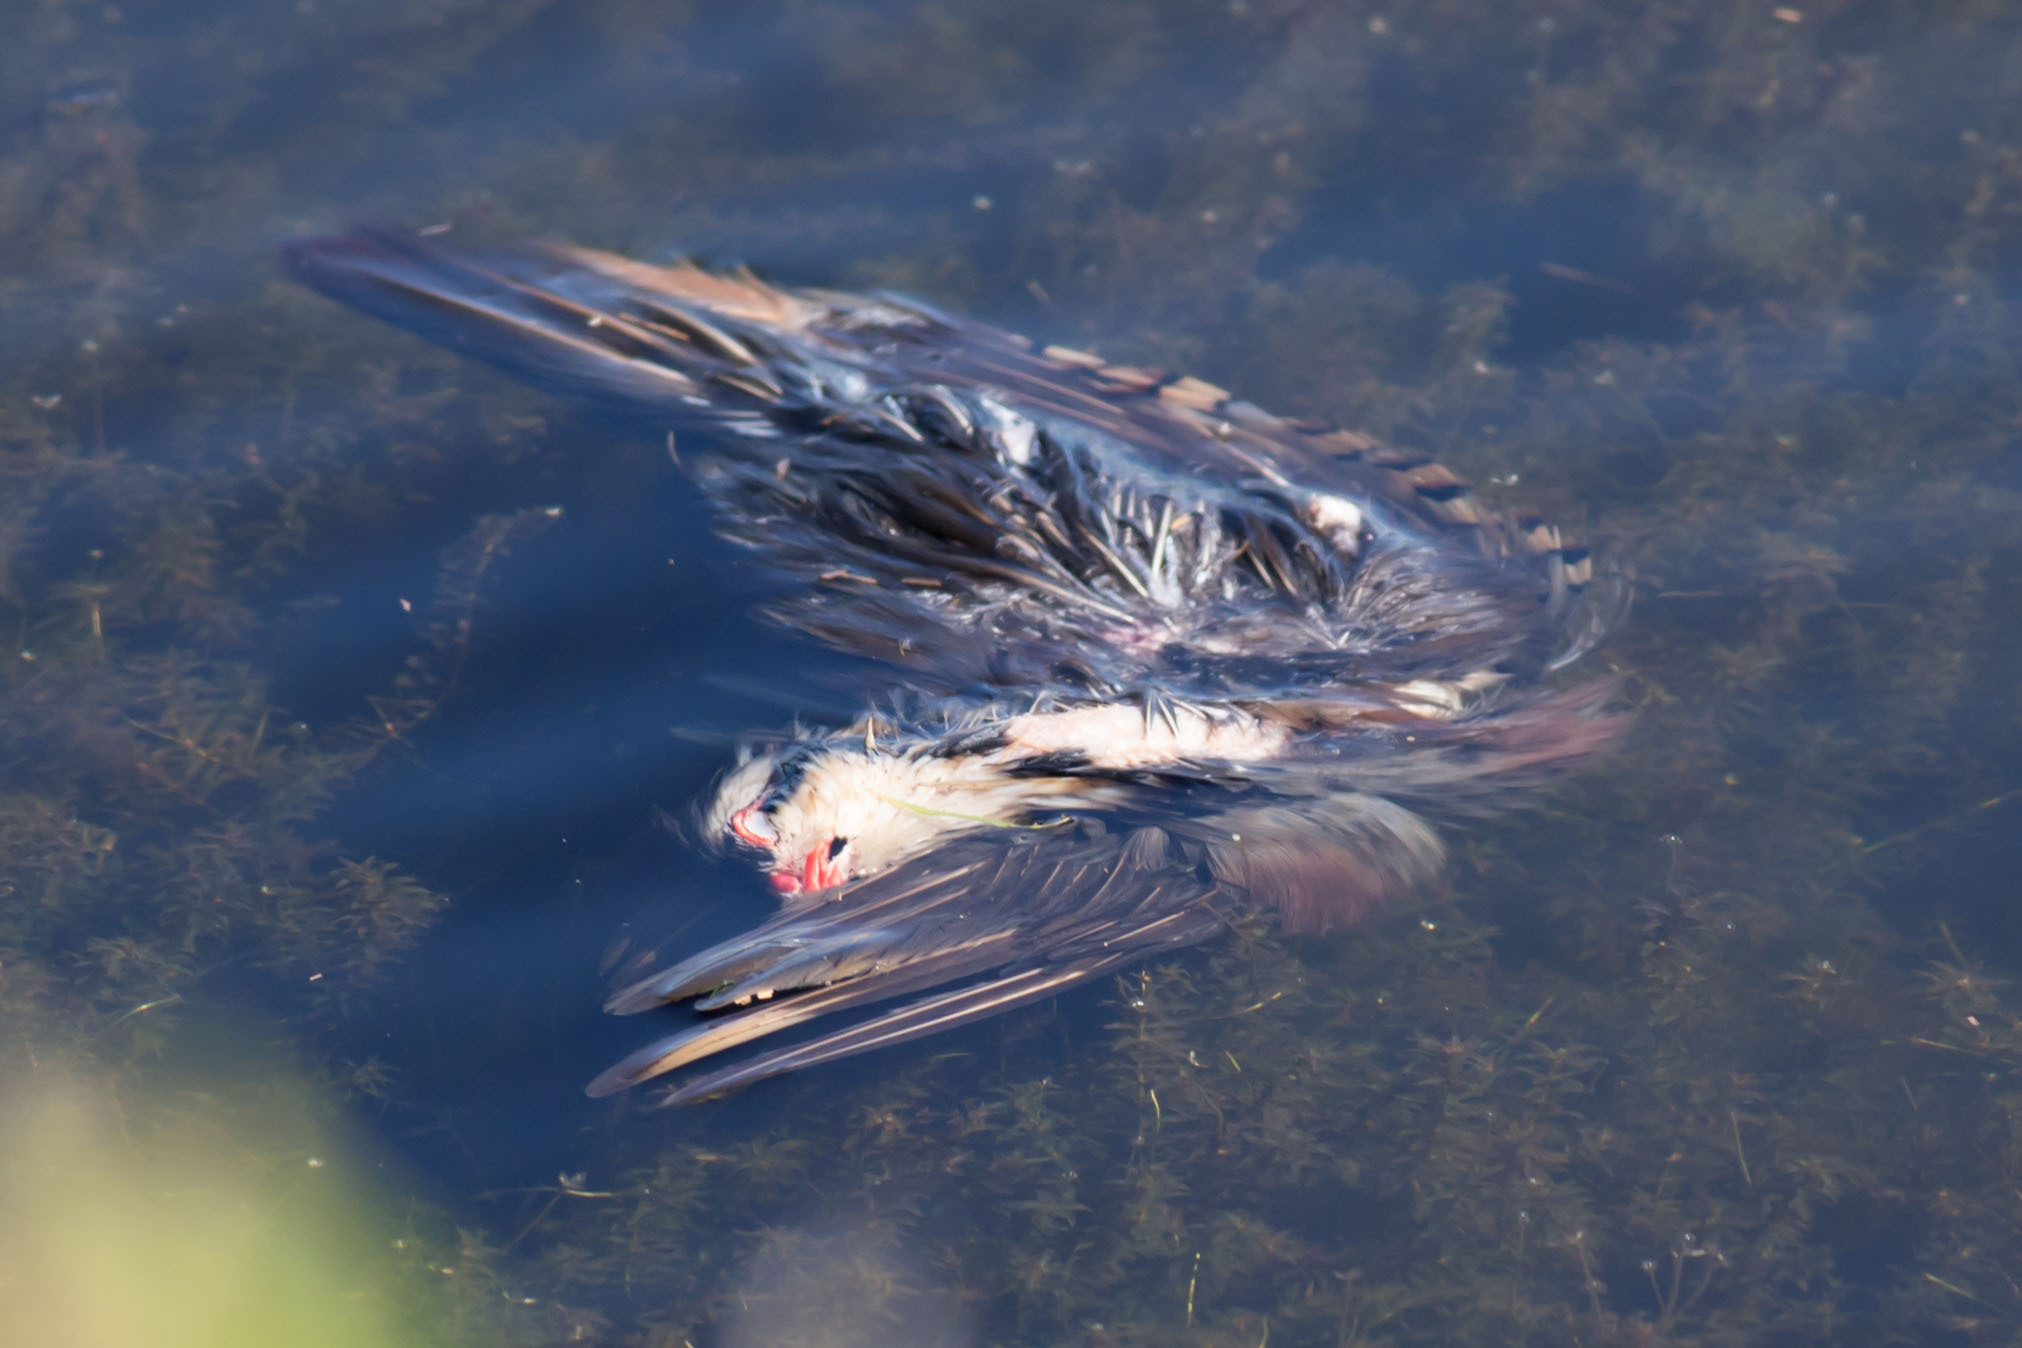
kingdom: Animalia
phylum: Chordata
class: Aves
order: Galliformes
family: Phasianidae
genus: Alectoris
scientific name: Alectoris chukar
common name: Chukar
